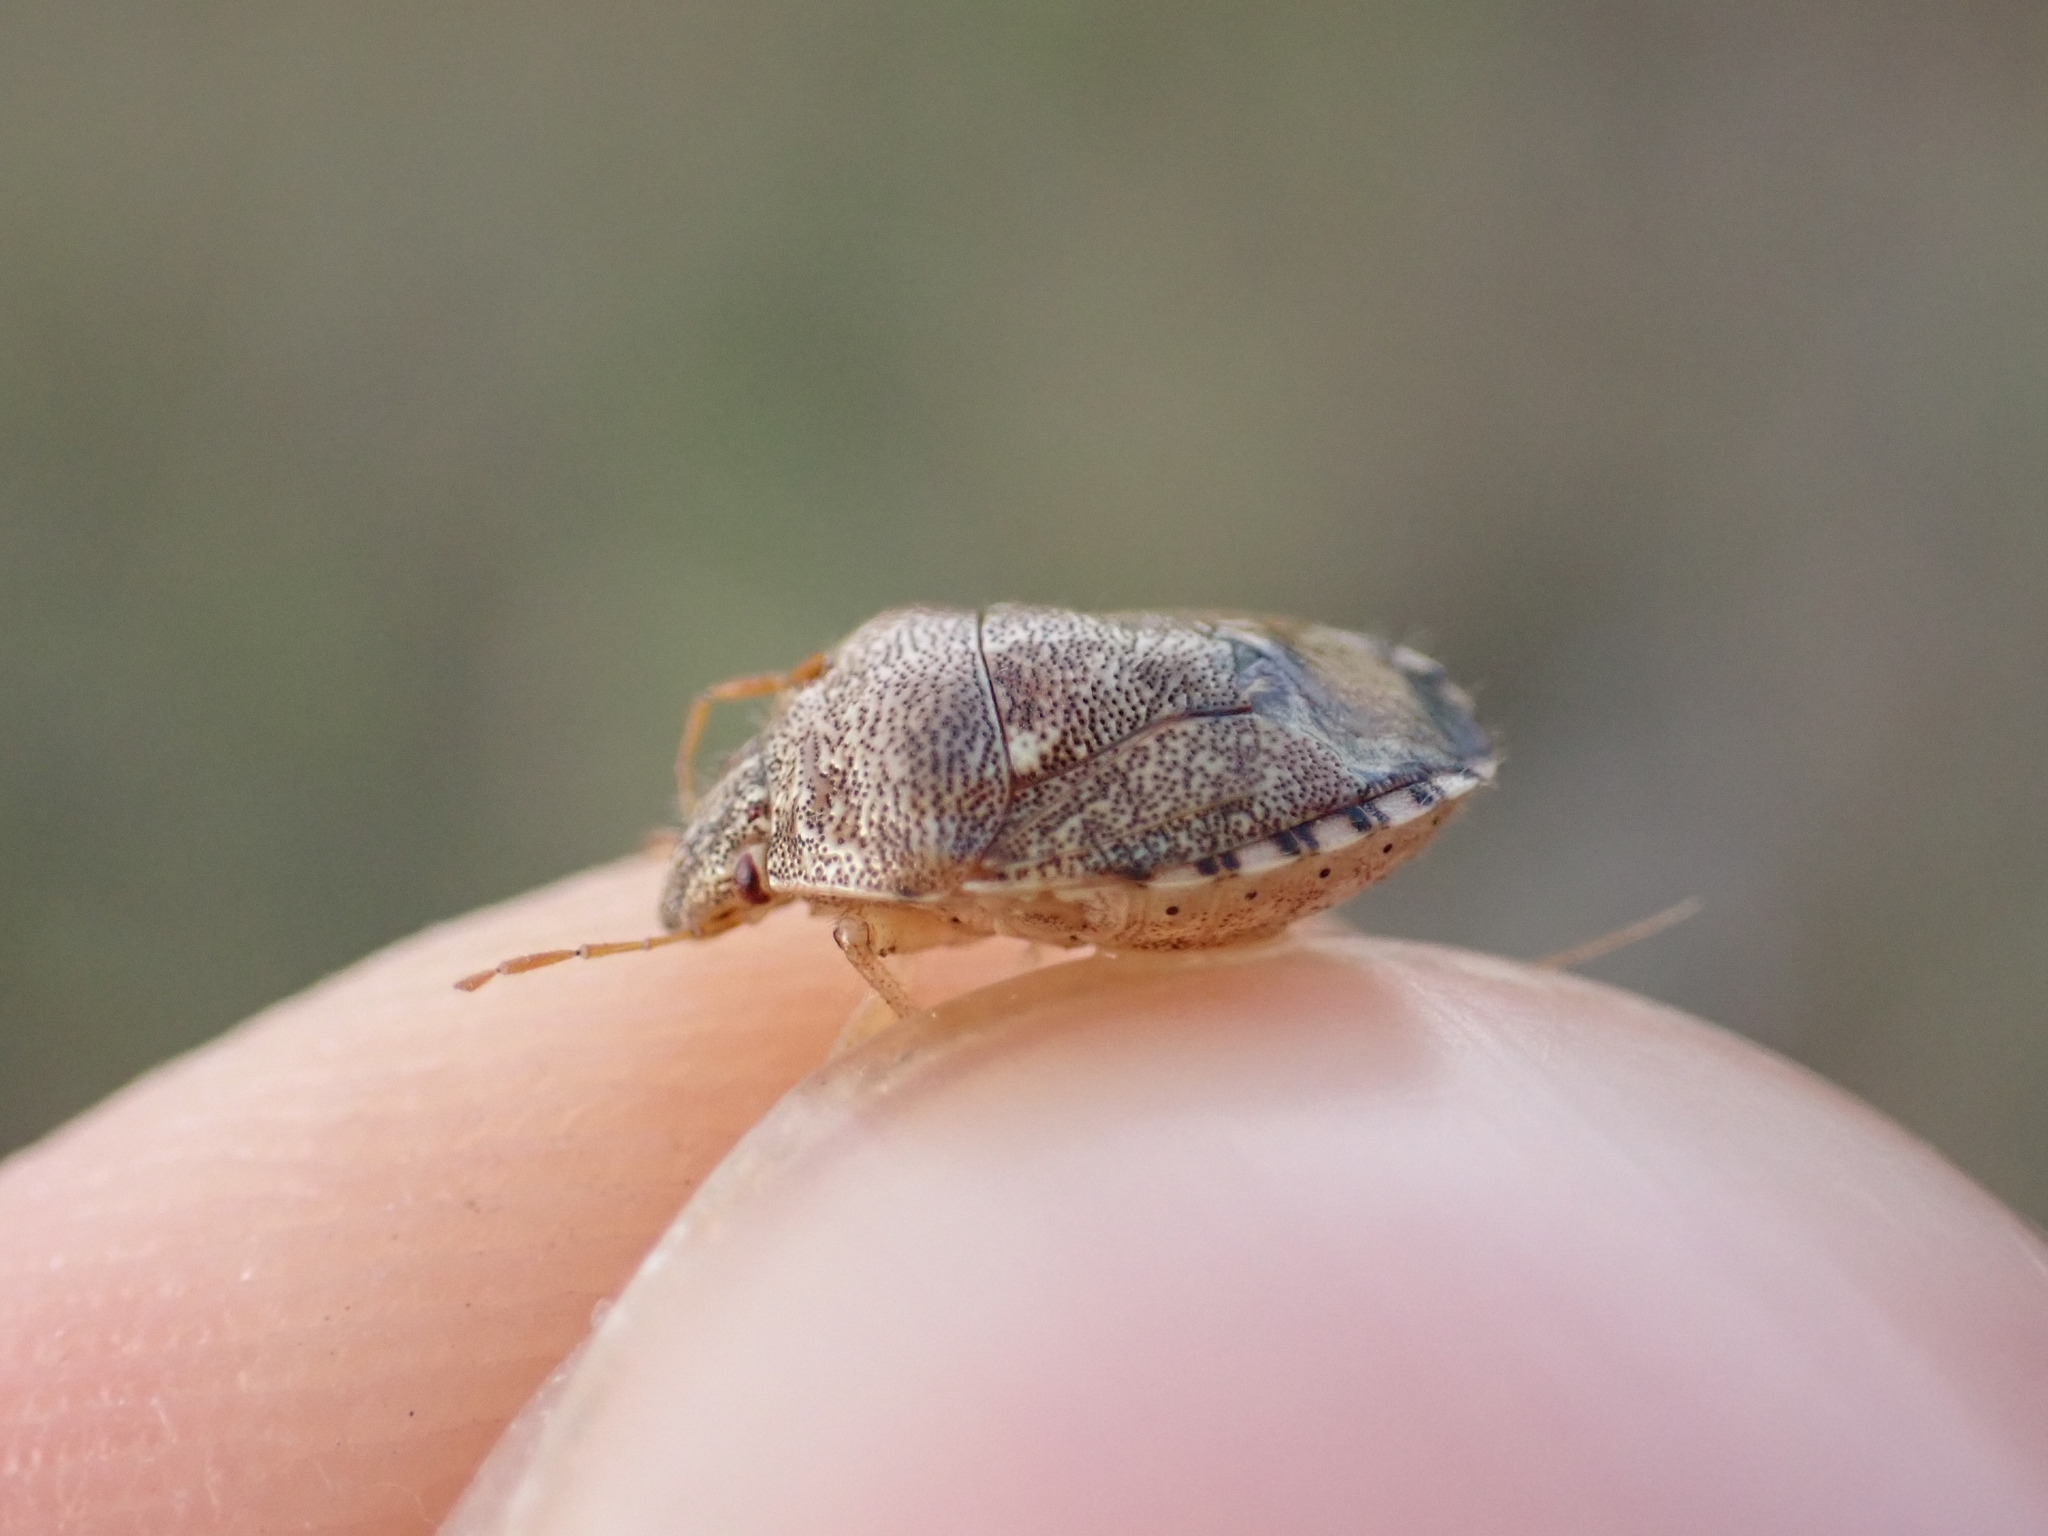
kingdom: Animalia
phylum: Arthropoda
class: Insecta
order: Hemiptera
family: Pentatomidae
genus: Staria
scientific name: Staria lunata
